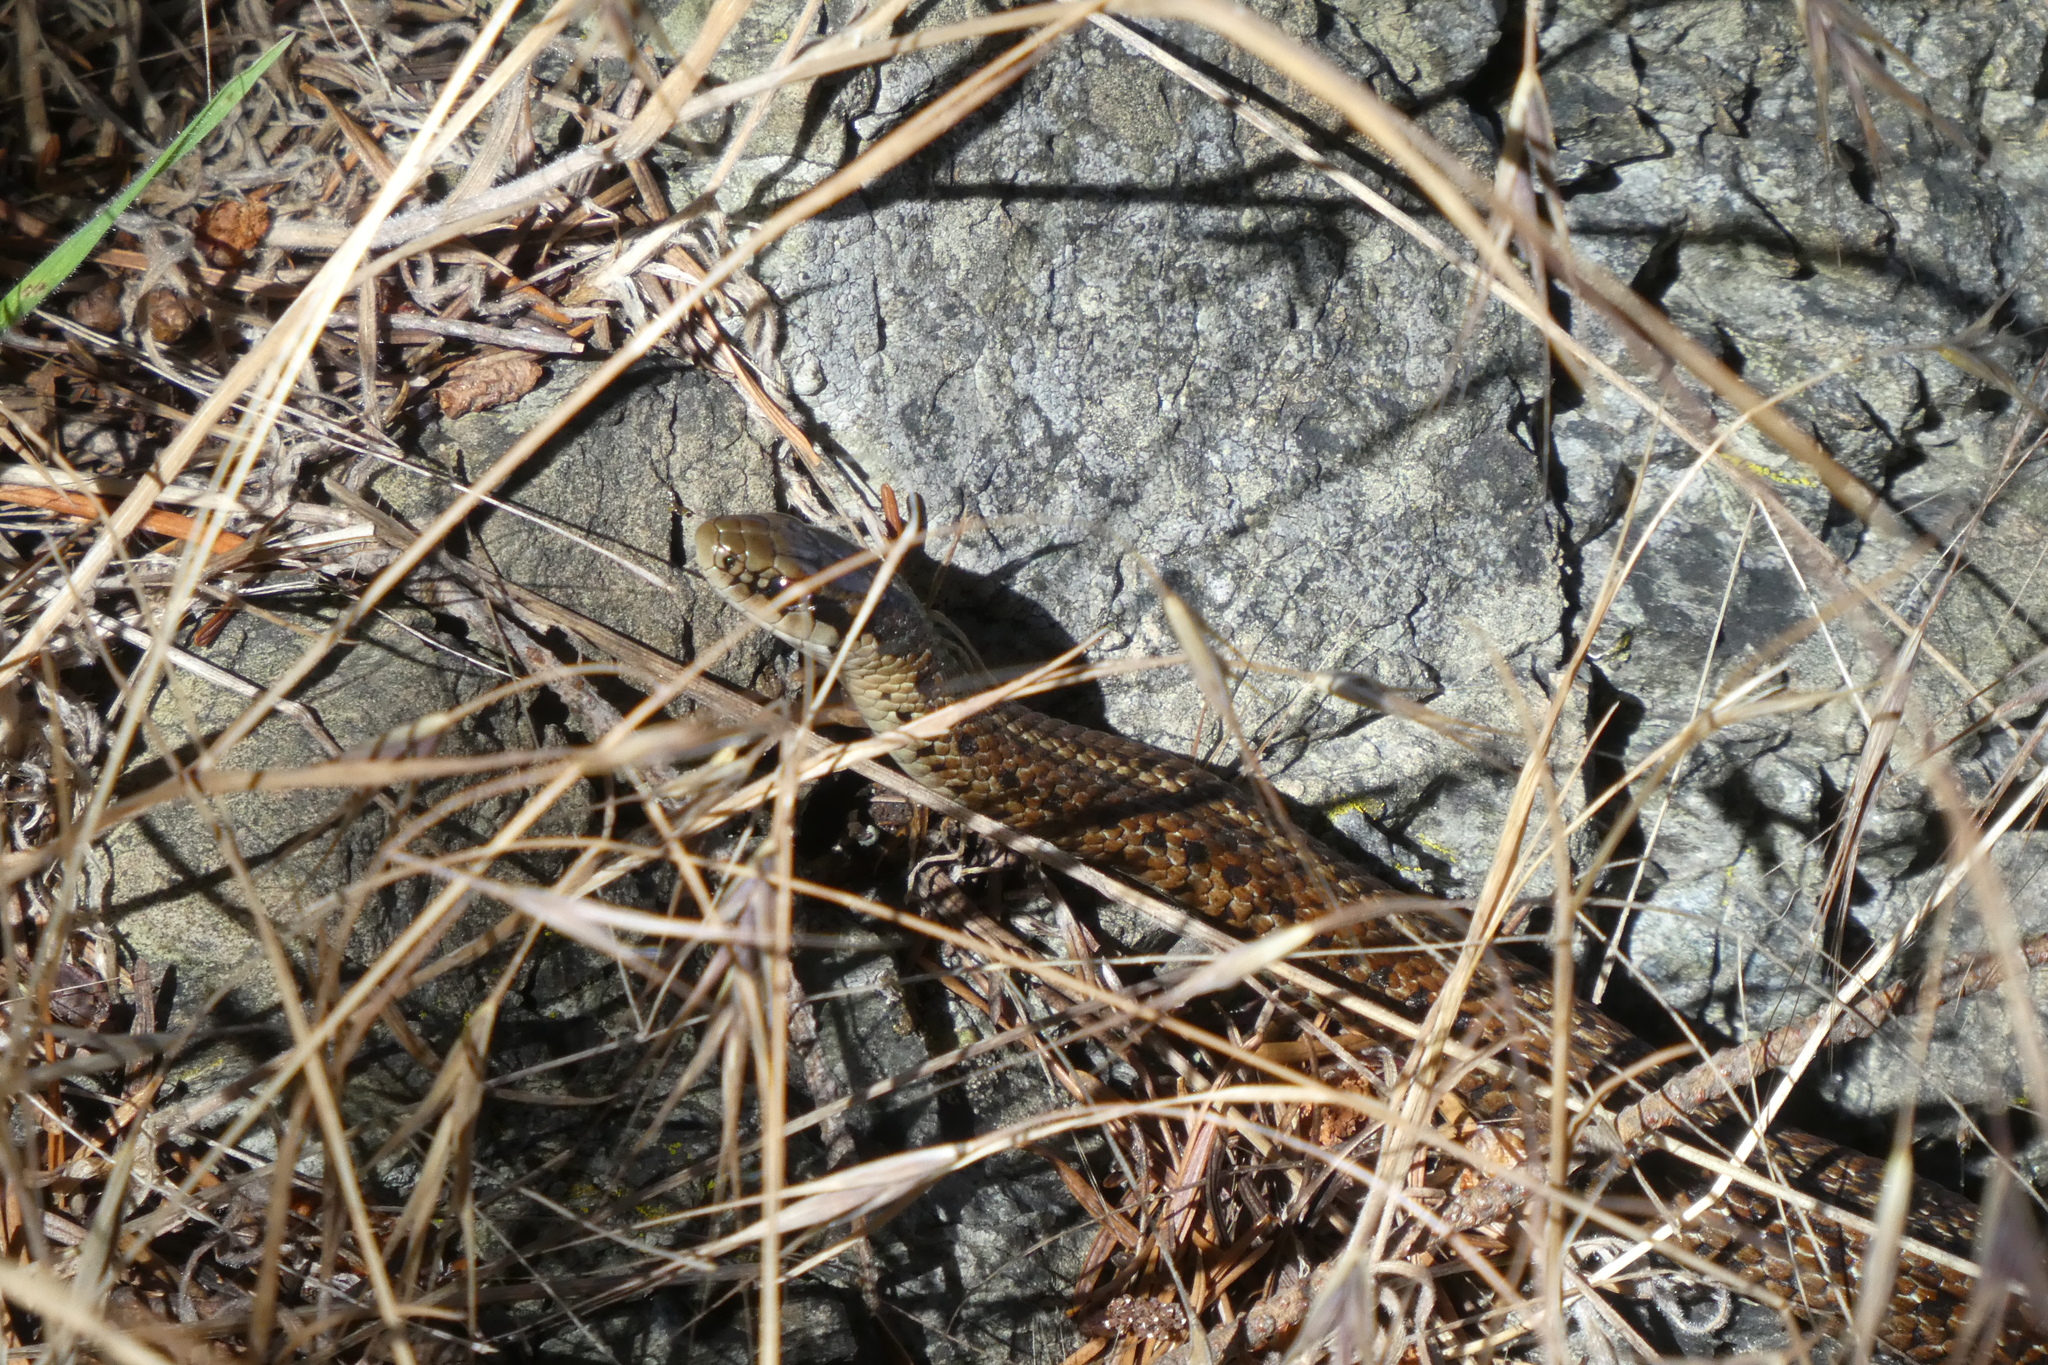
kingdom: Animalia
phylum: Chordata
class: Squamata
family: Colubridae
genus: Thamnophis
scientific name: Thamnophis ordinoides
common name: Northwestern garter snake
